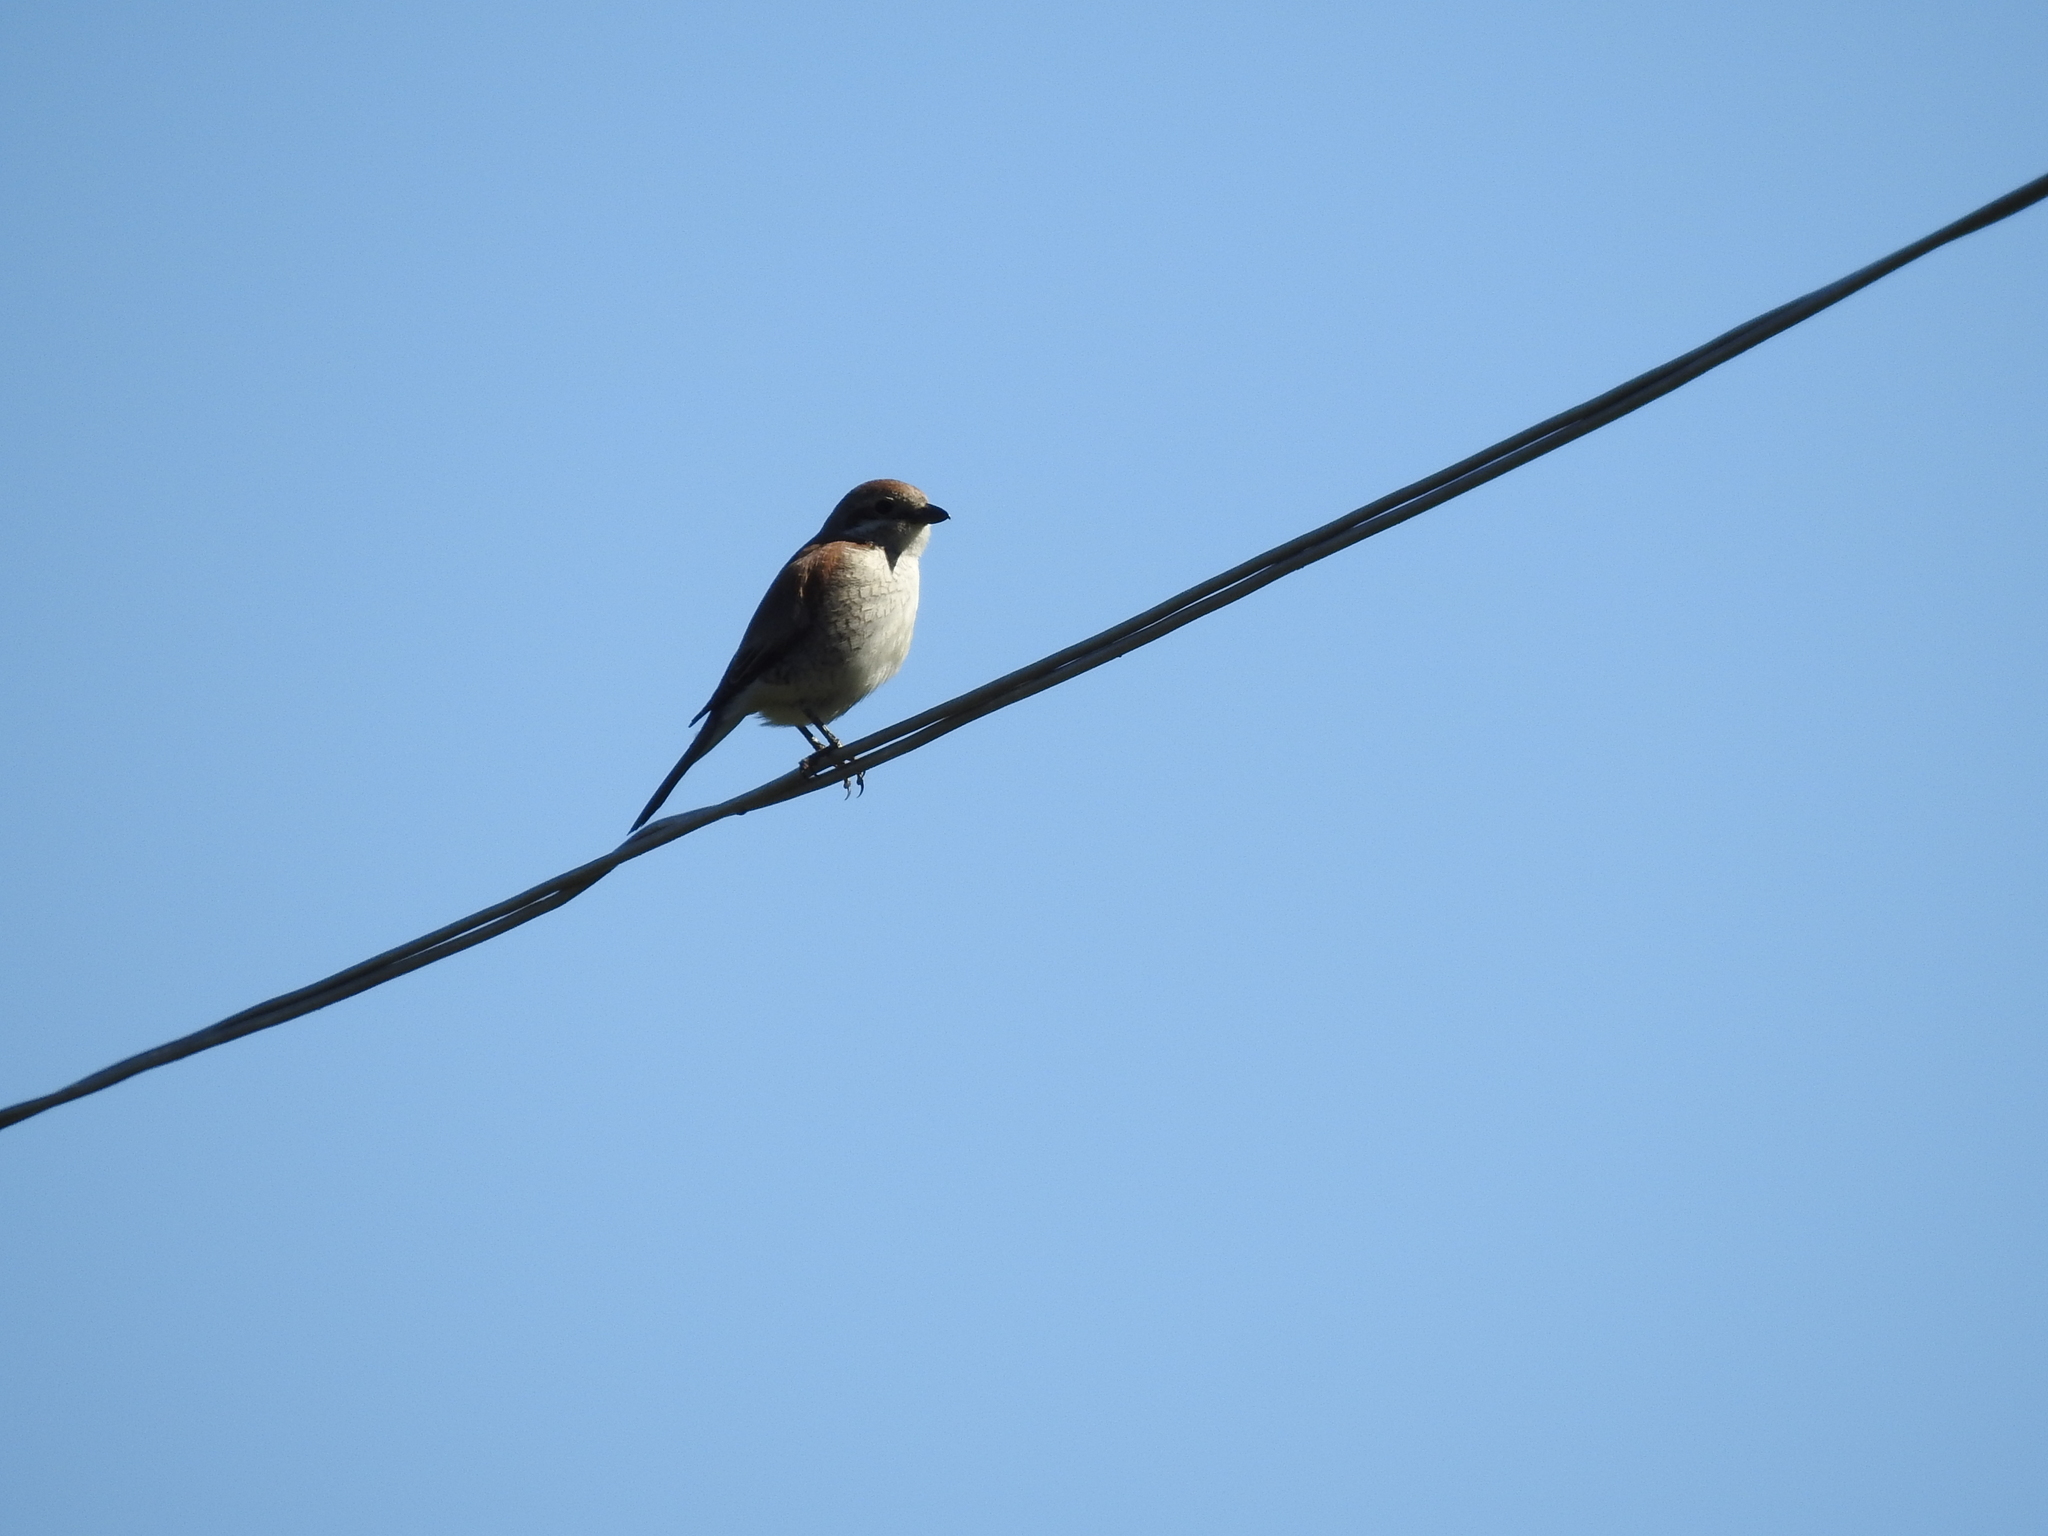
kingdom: Animalia
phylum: Chordata
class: Aves
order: Passeriformes
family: Laniidae
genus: Lanius
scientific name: Lanius collurio
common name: Red-backed shrike
